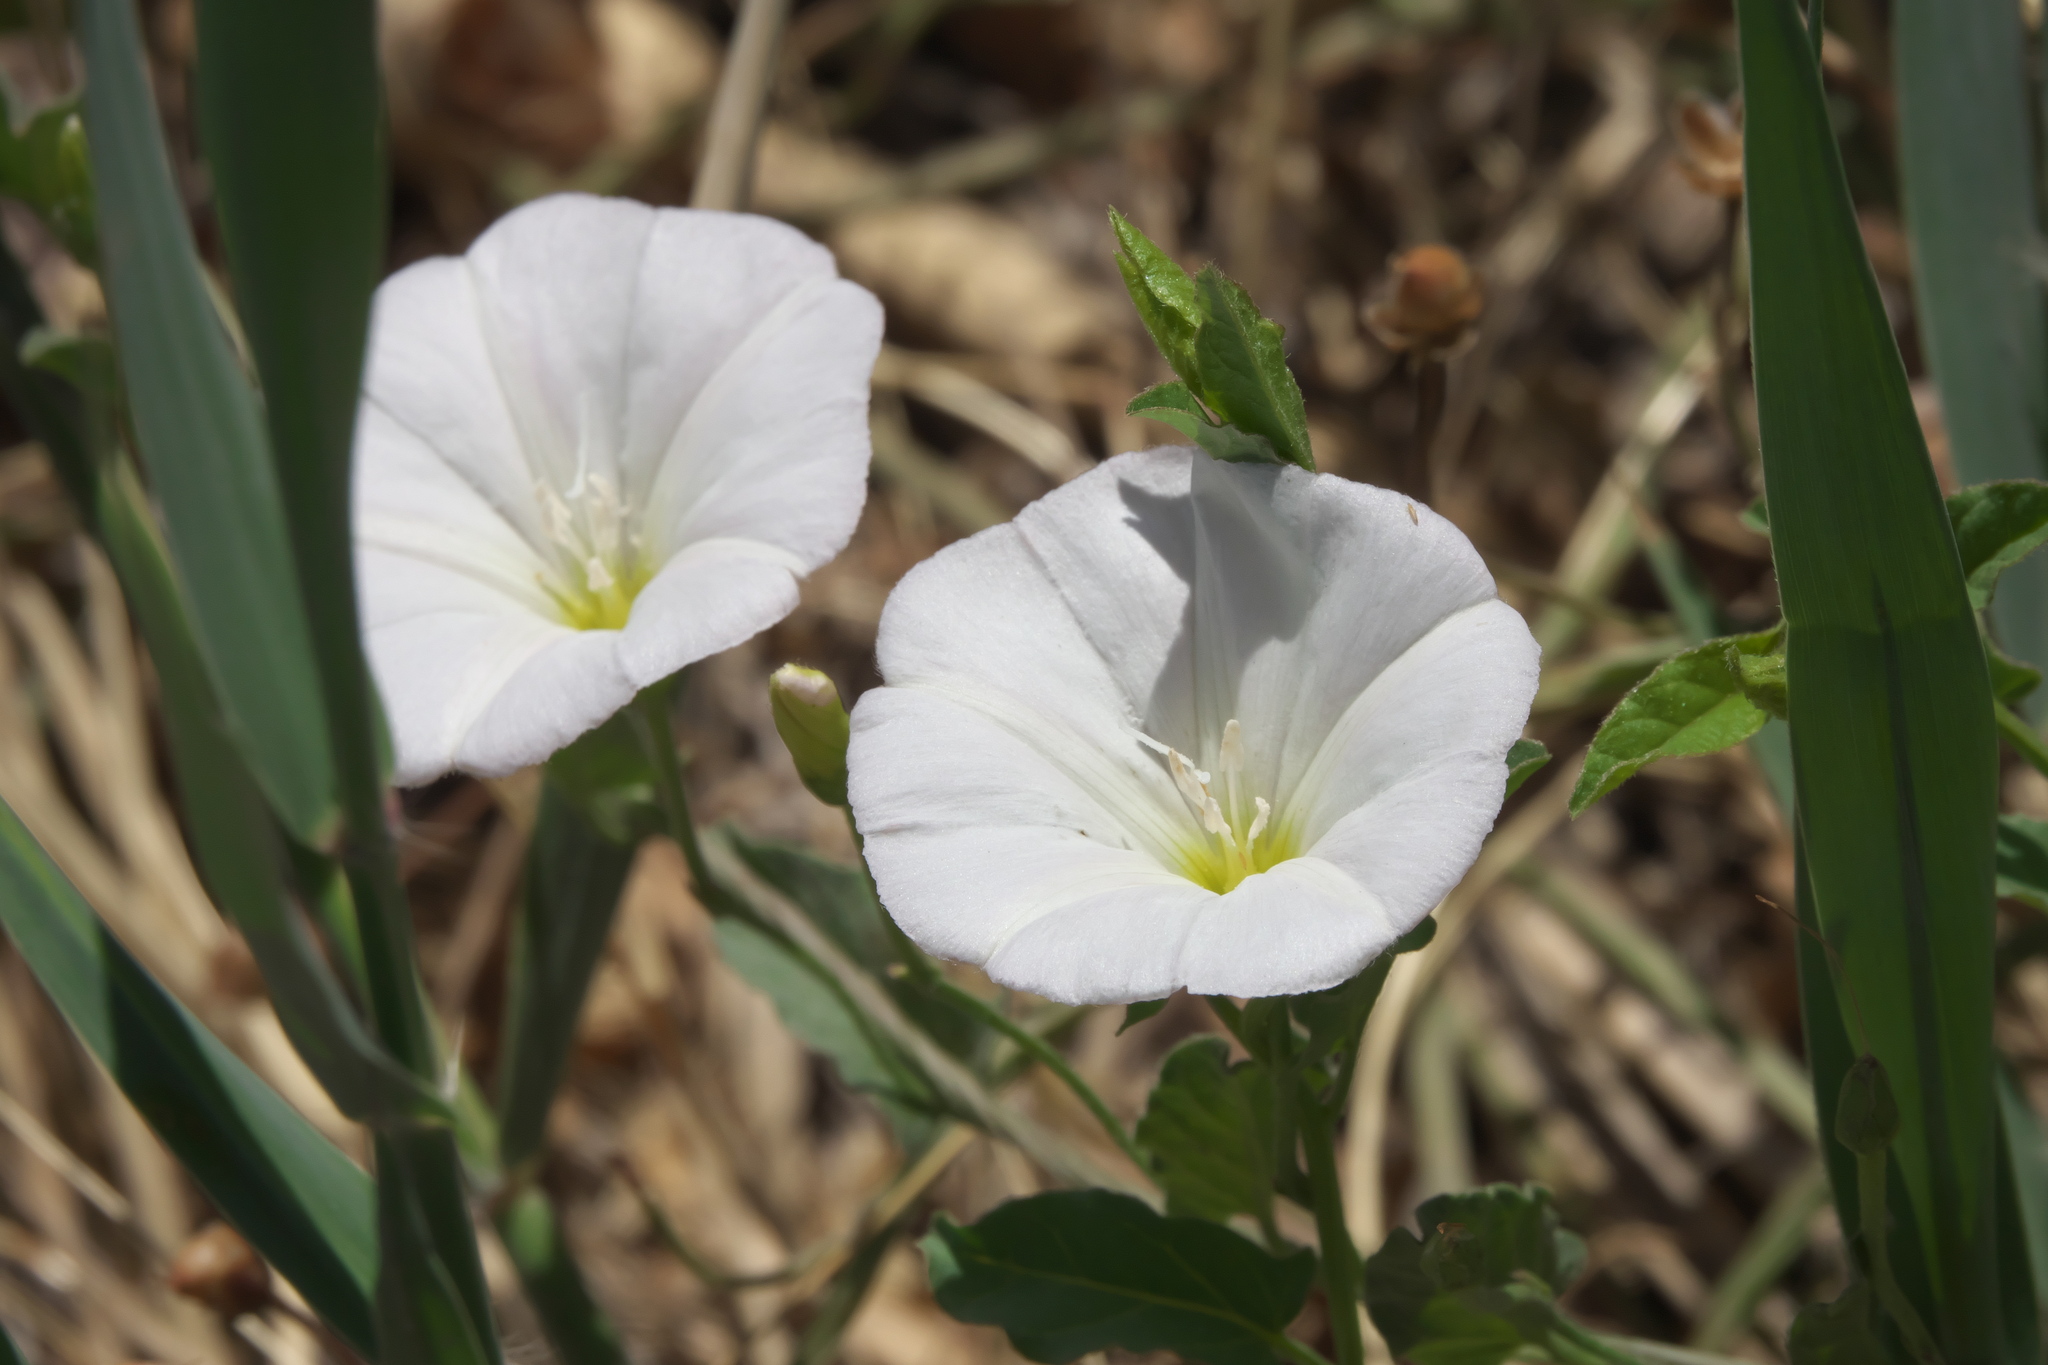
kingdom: Plantae
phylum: Tracheophyta
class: Magnoliopsida
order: Solanales
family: Convolvulaceae
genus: Convolvulus
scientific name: Convolvulus arvensis
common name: Field bindweed
